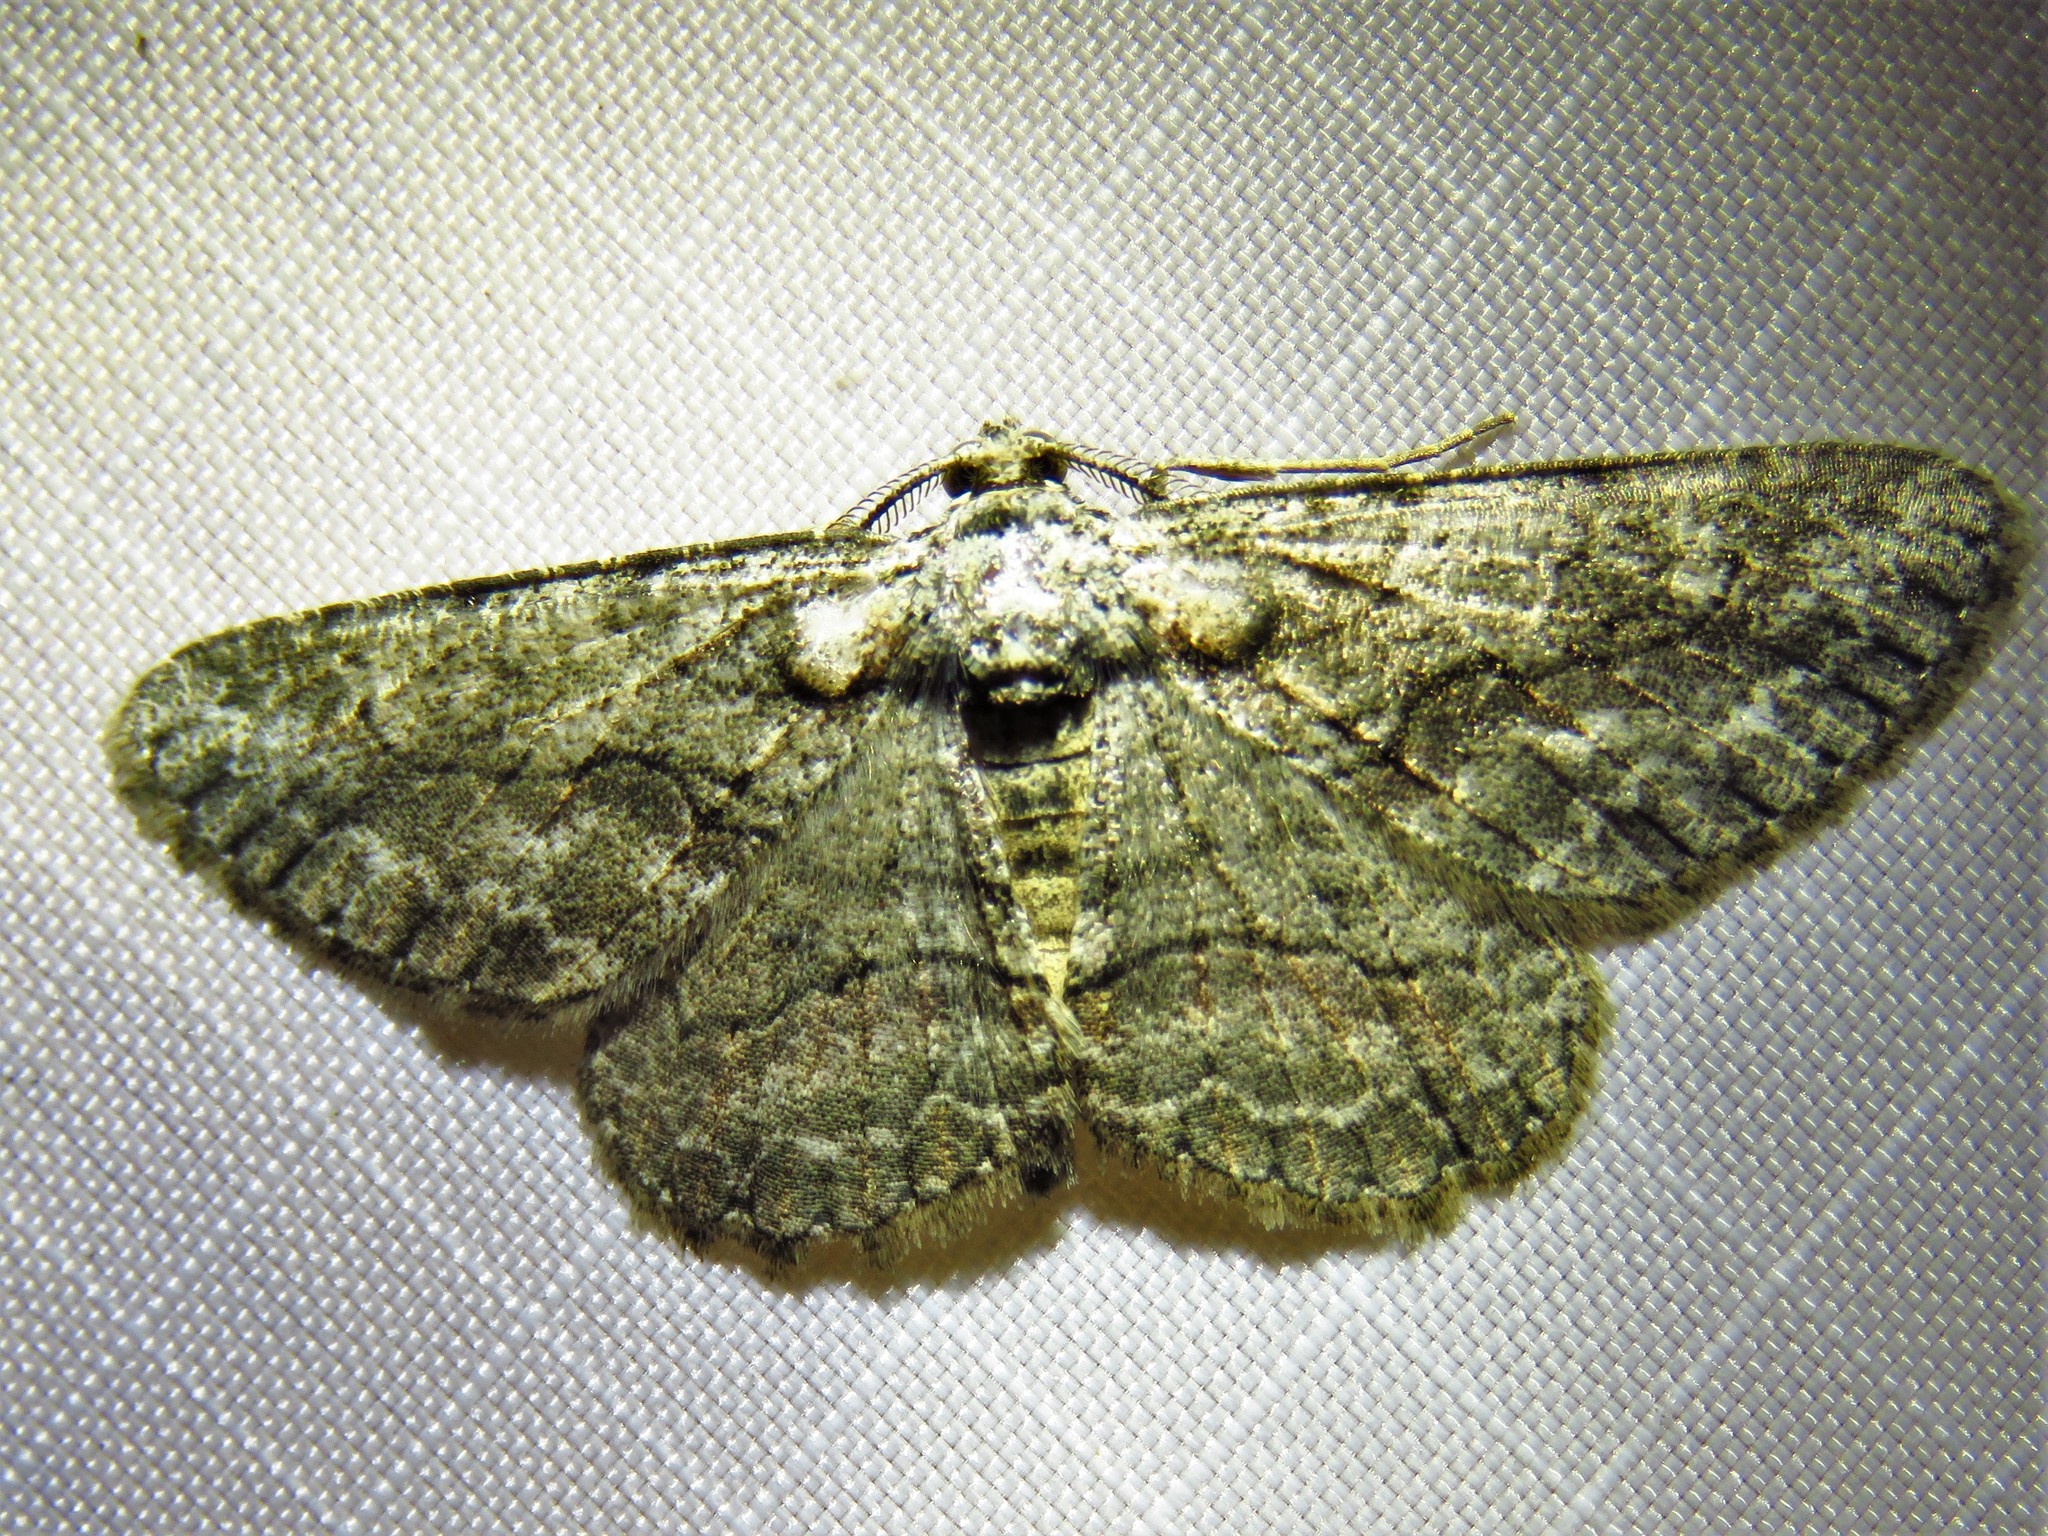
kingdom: Animalia
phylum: Arthropoda
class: Insecta
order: Lepidoptera
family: Geometridae
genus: Anavitrinella
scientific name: Anavitrinella pampinaria
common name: Common gray
